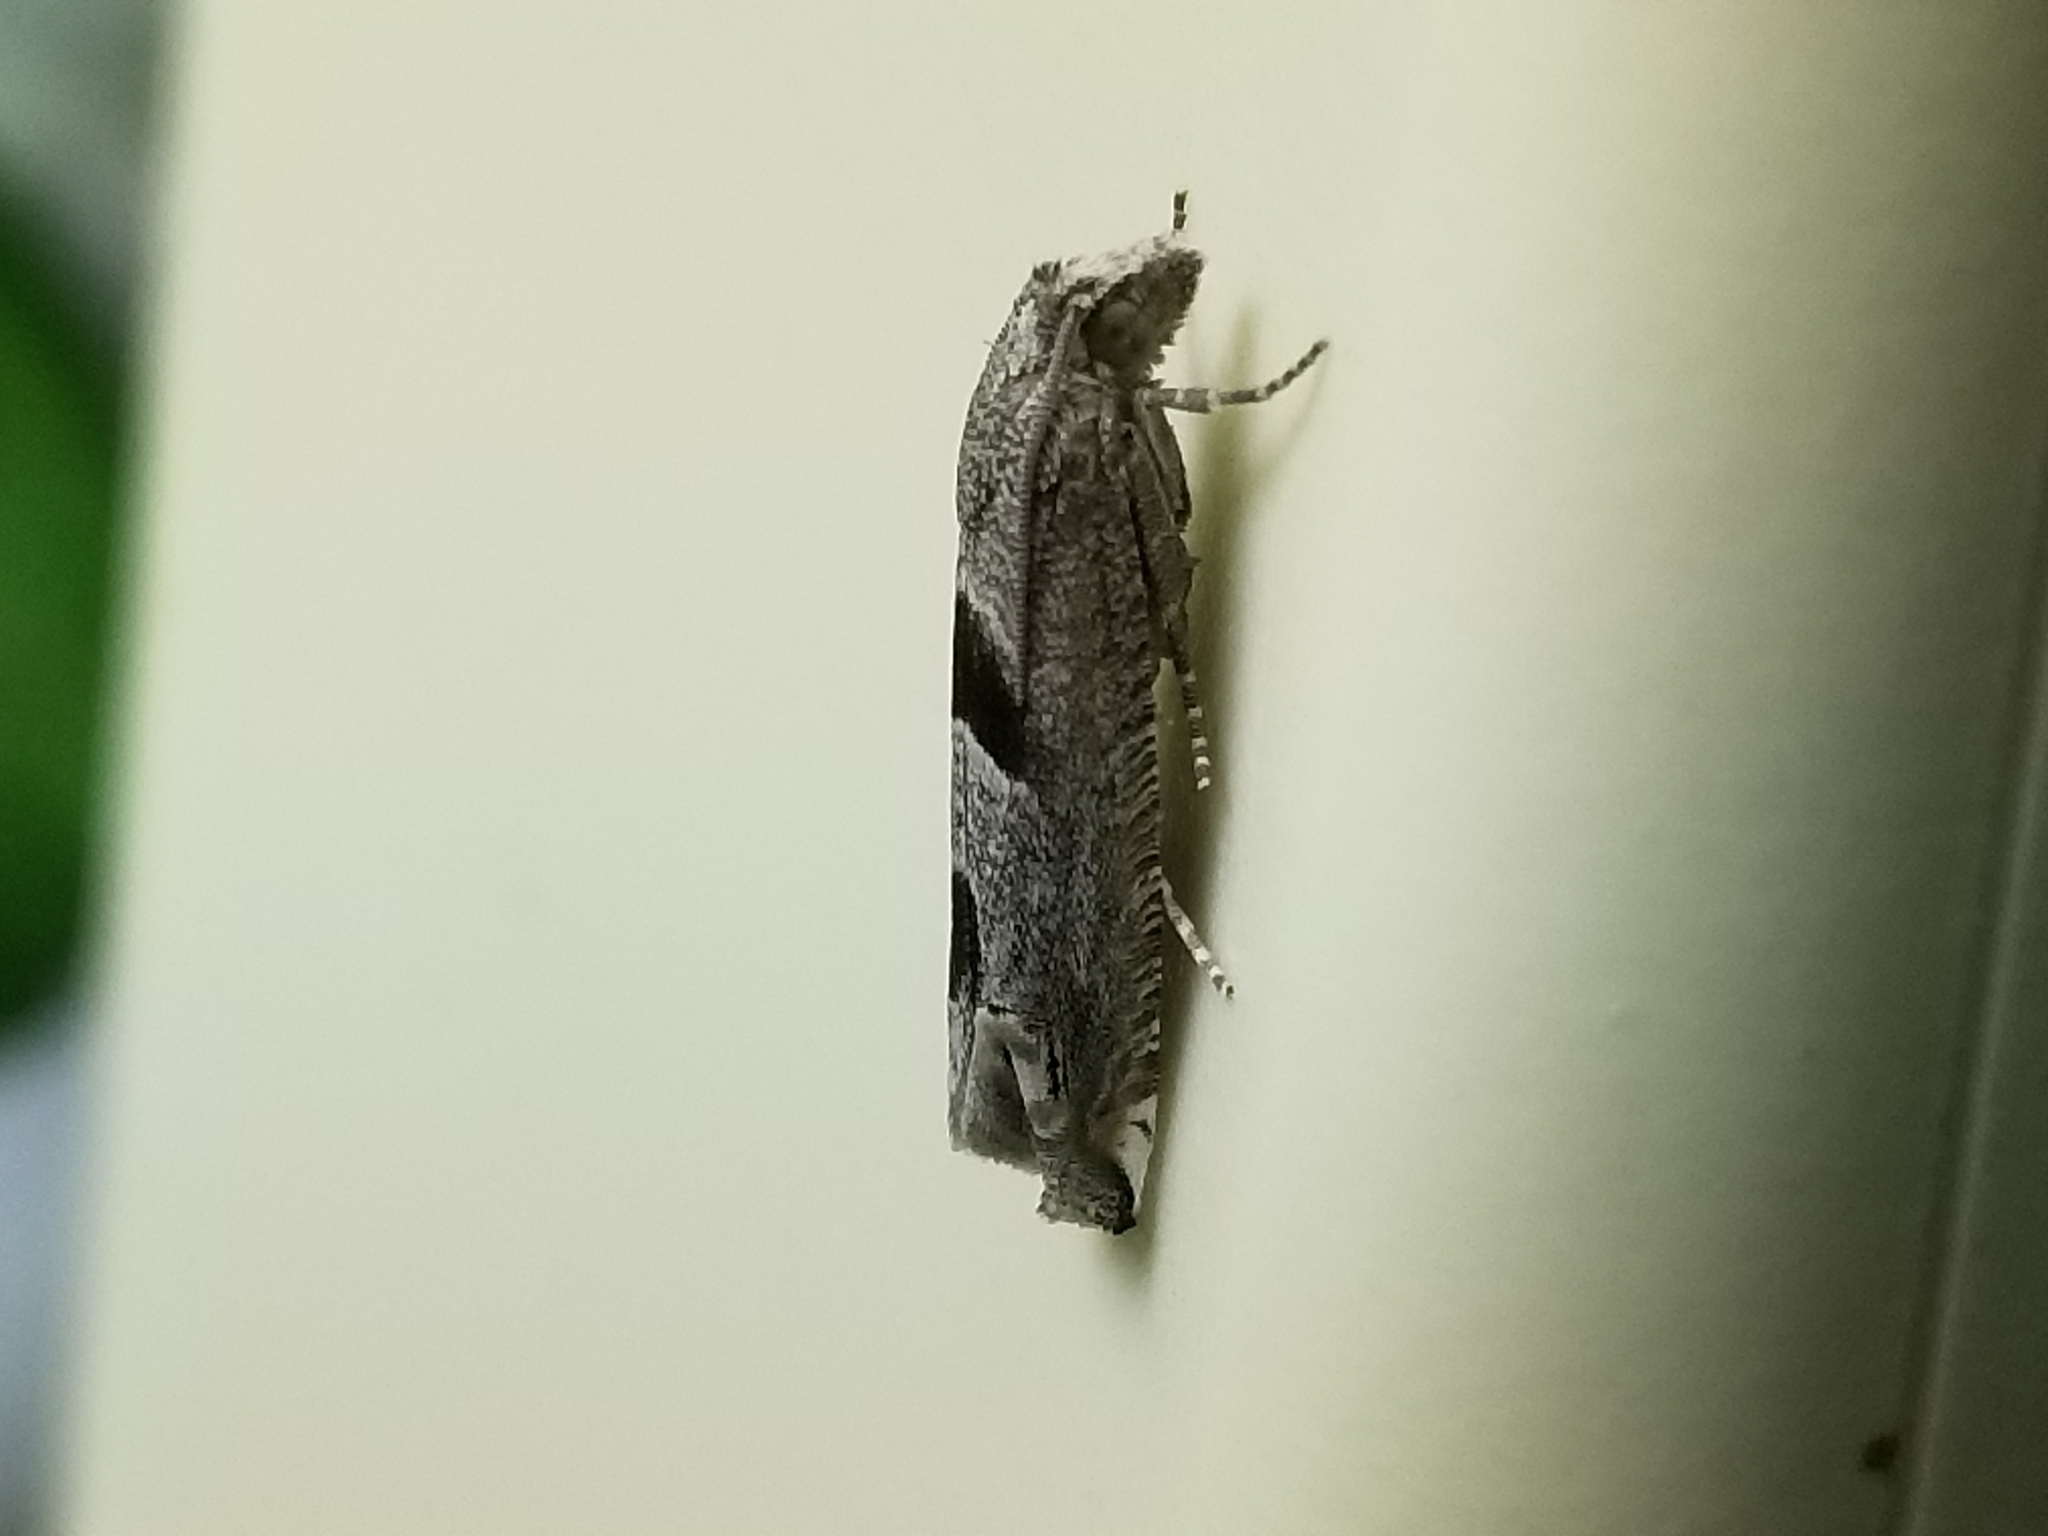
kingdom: Animalia
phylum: Arthropoda
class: Insecta
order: Lepidoptera
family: Tortricidae
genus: Suleima
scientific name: Suleima helianthana
